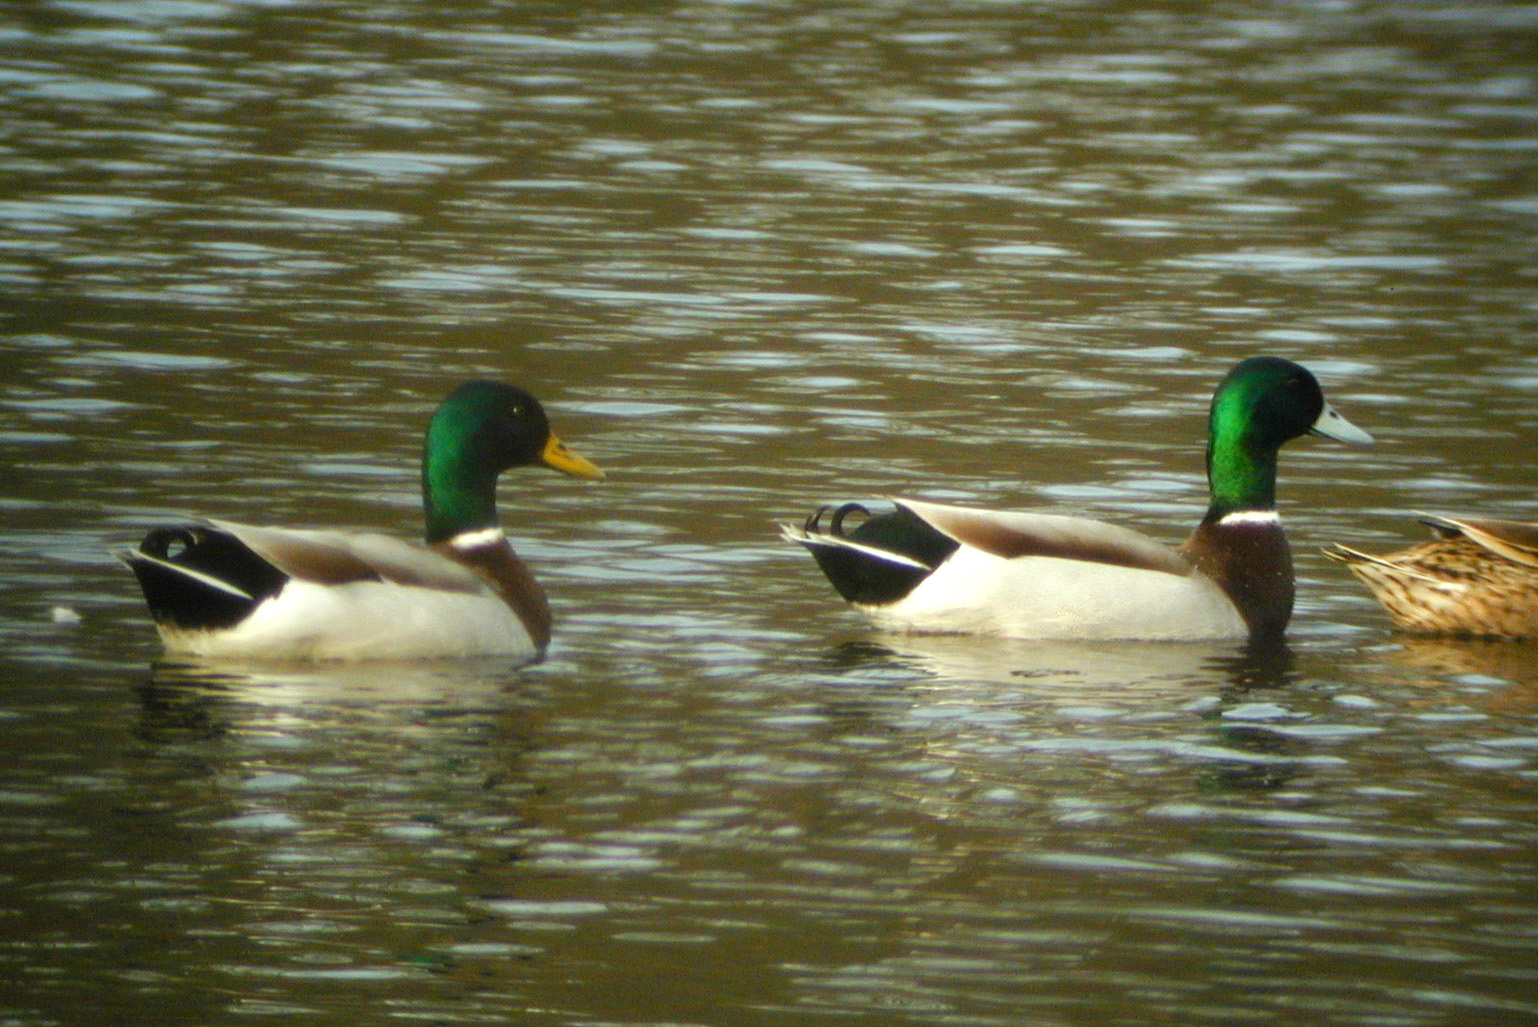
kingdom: Animalia
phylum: Chordata
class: Aves
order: Anseriformes
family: Anatidae
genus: Anas
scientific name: Anas platyrhynchos
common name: Mallard
